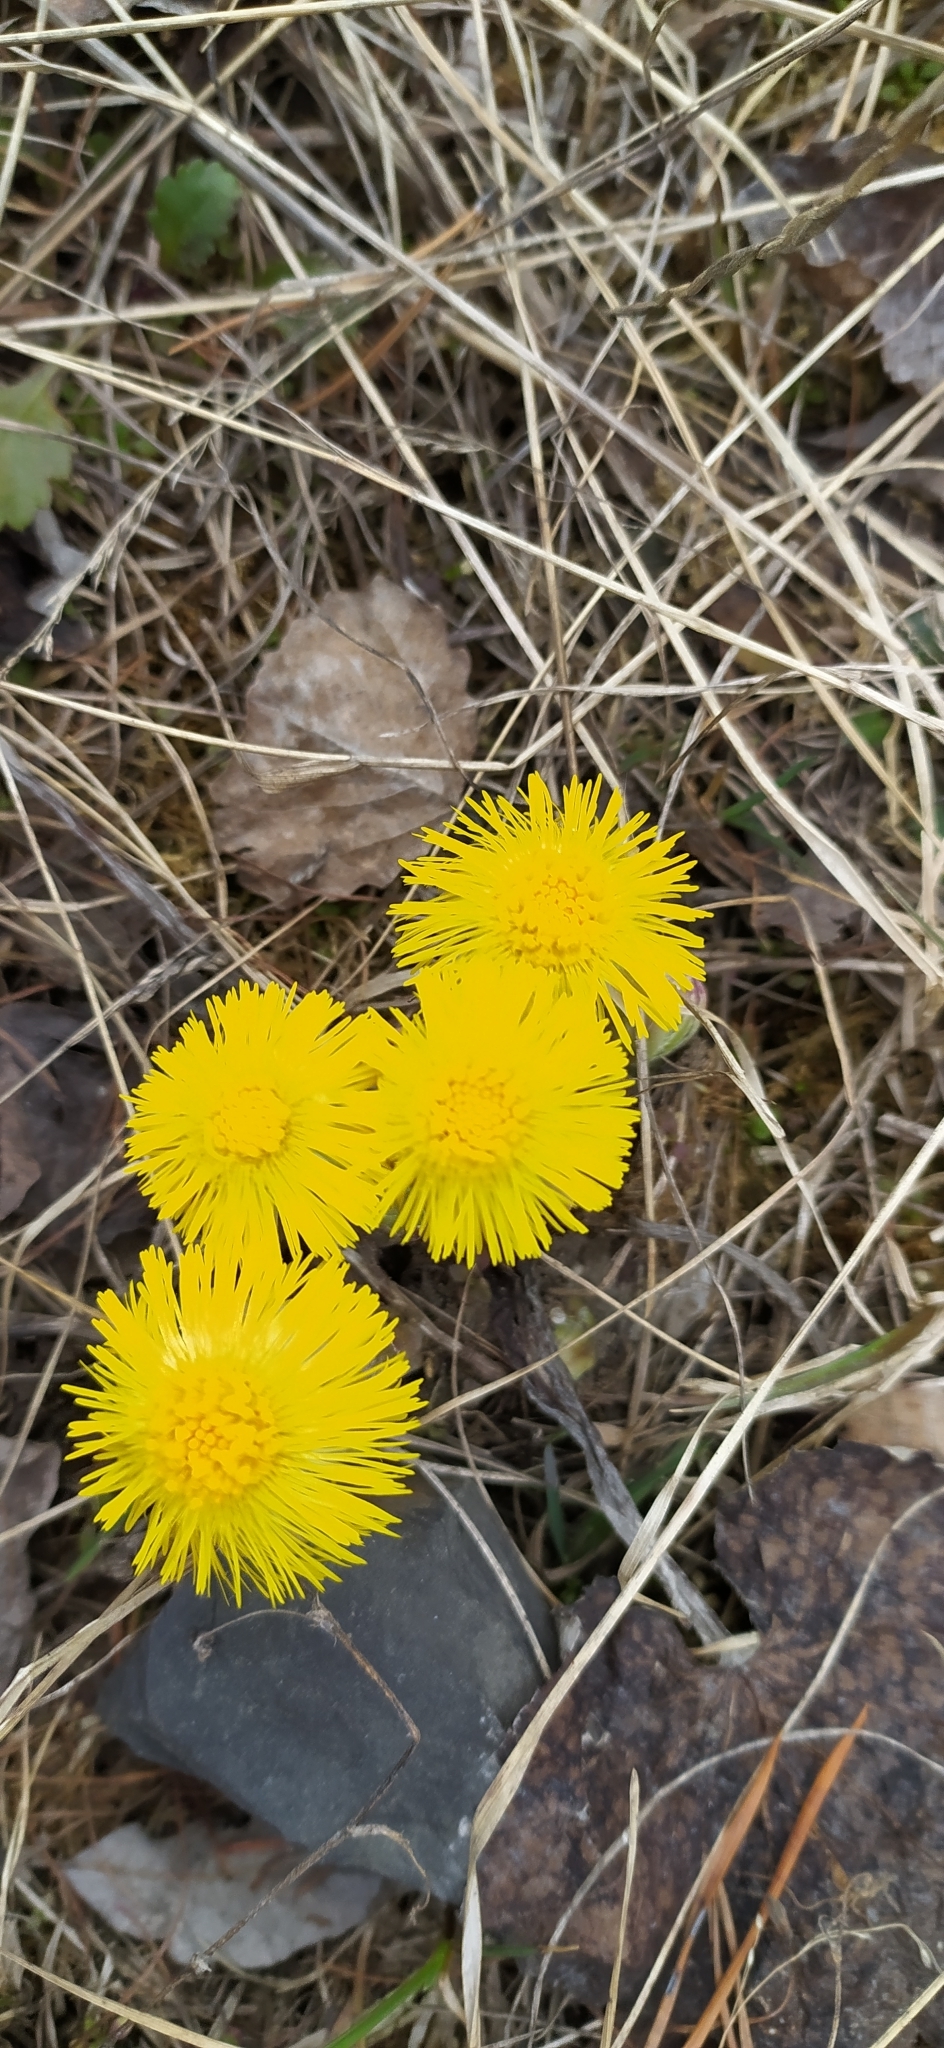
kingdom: Plantae
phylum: Tracheophyta
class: Magnoliopsida
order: Asterales
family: Asteraceae
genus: Tussilago
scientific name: Tussilago farfara
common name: Coltsfoot
